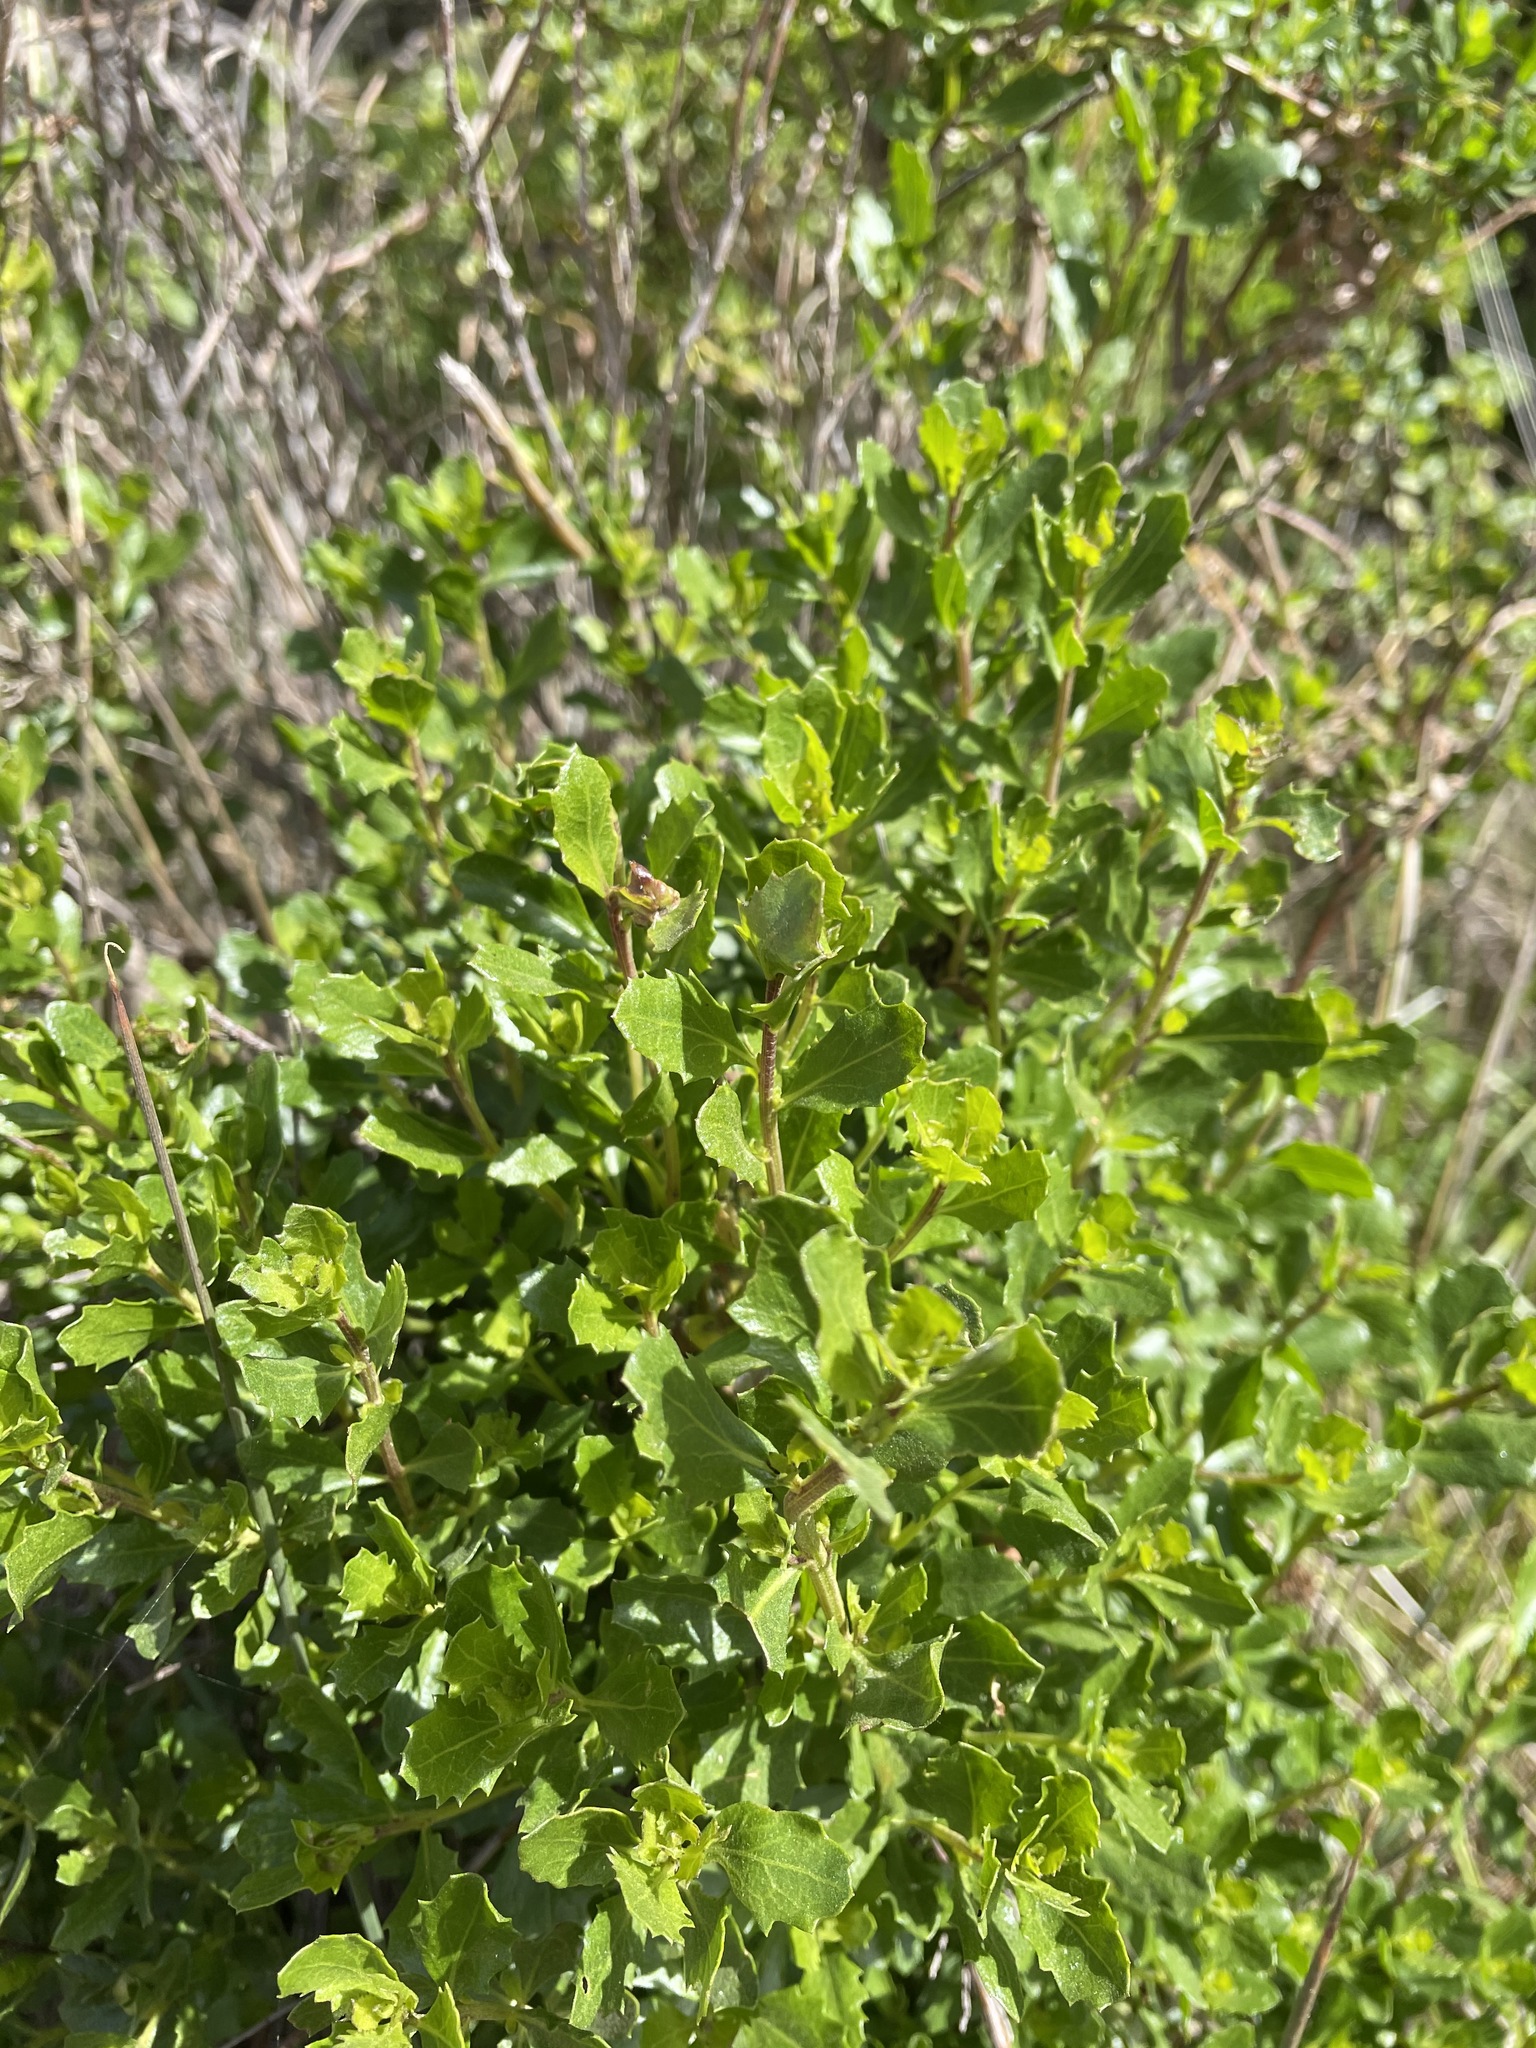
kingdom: Plantae
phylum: Tracheophyta
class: Magnoliopsida
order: Asterales
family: Asteraceae
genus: Baccharis
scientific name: Baccharis pilularis
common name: Coyotebrush
